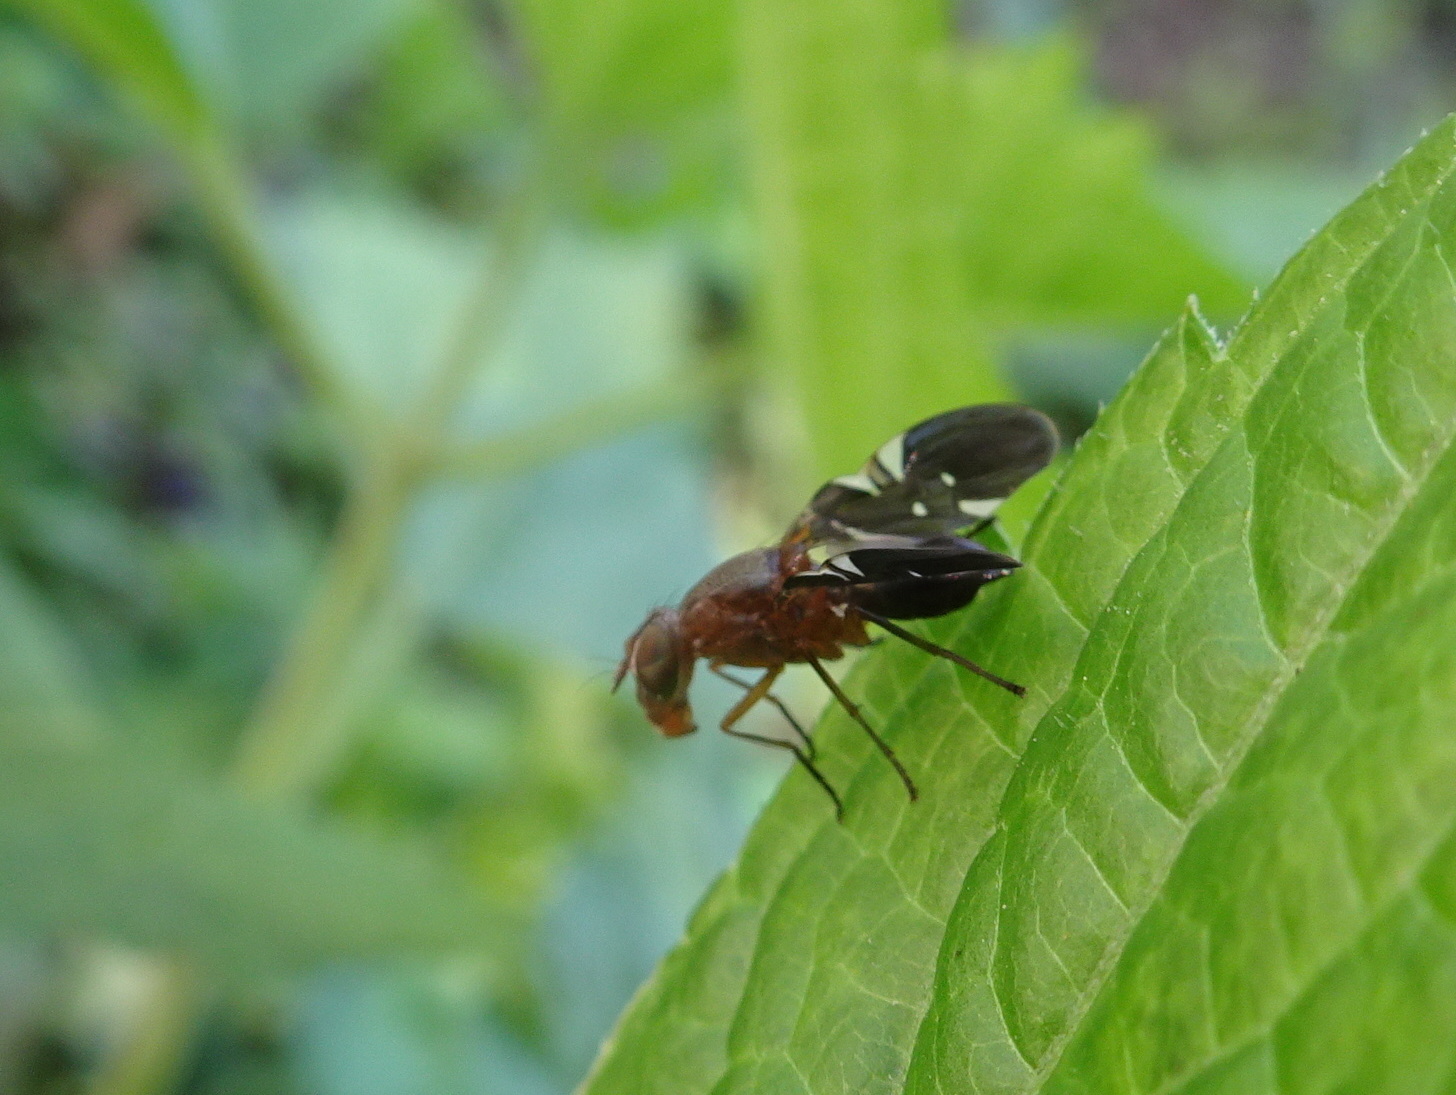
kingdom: Animalia
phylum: Arthropoda
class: Insecta
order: Diptera
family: Ulidiidae
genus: Delphinia
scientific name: Delphinia picta
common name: Common picture-winged fly
